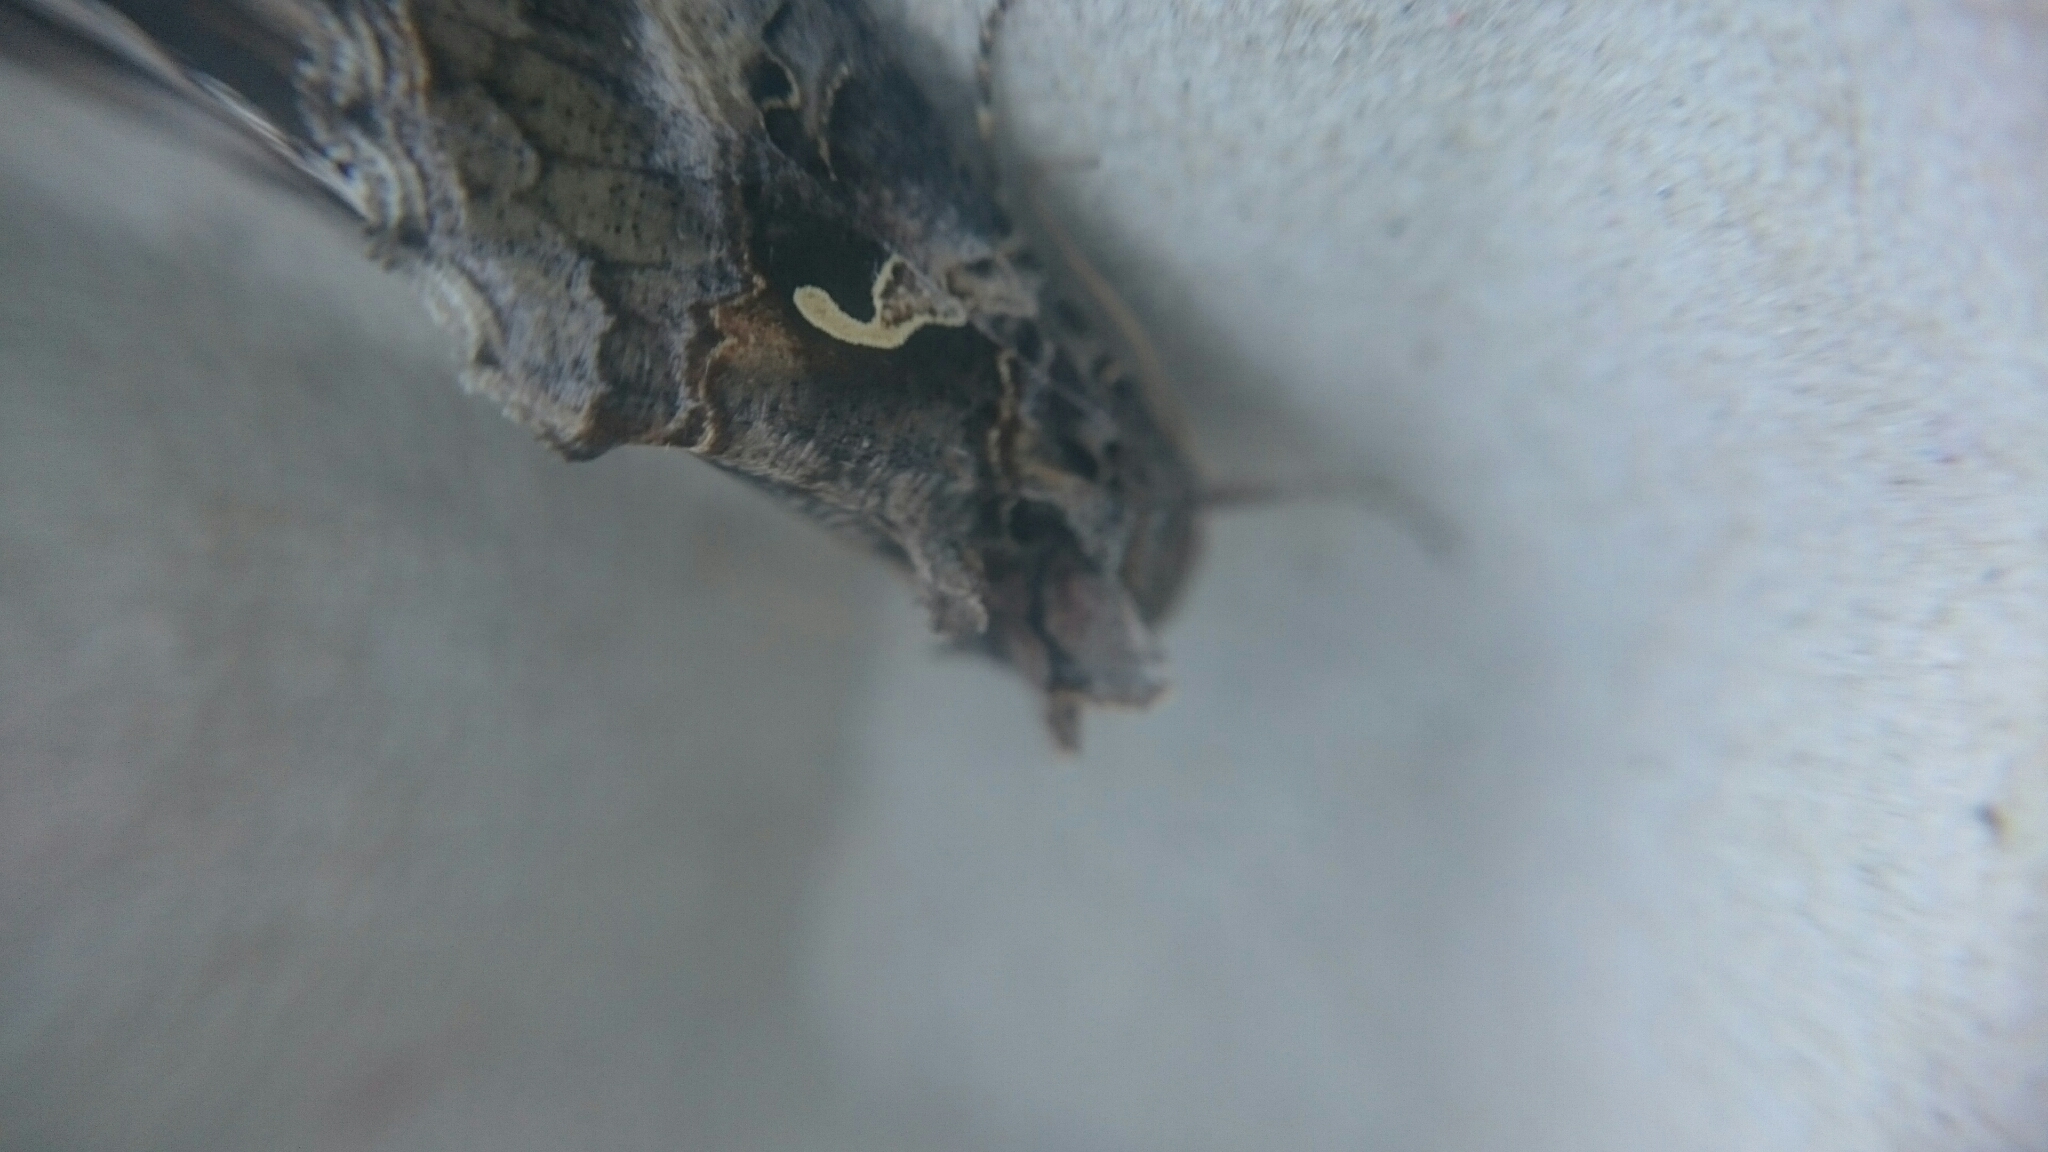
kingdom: Animalia
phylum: Arthropoda
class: Insecta
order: Lepidoptera
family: Noctuidae
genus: Autographa
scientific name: Autographa gamma
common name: Silver y
